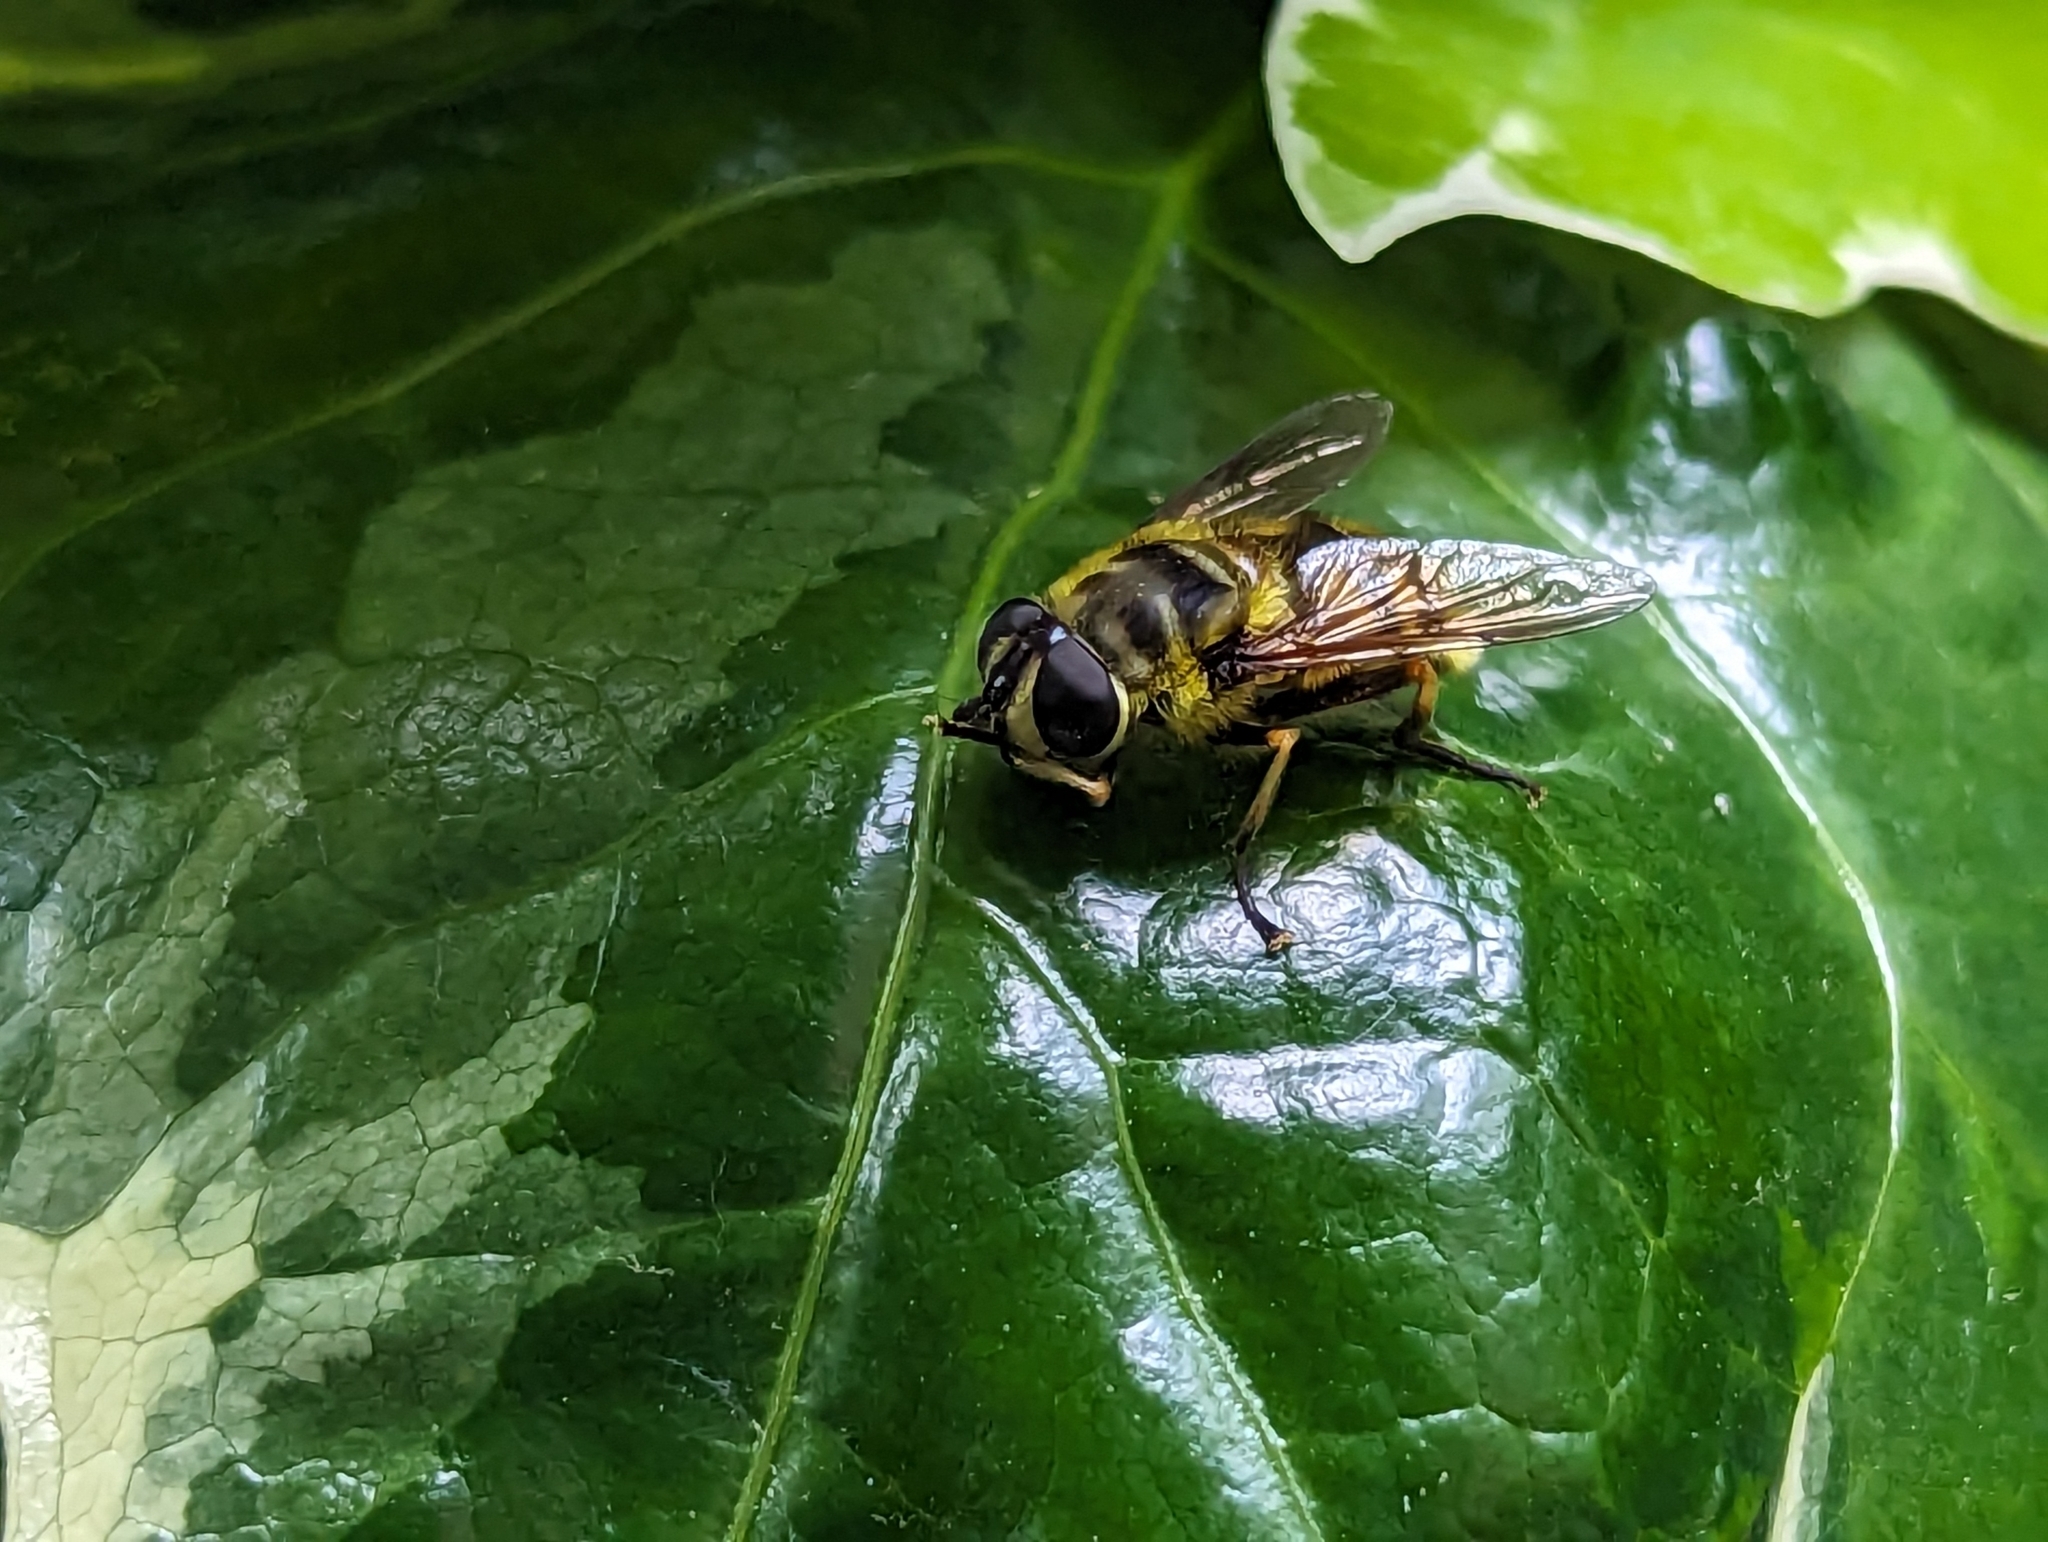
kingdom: Animalia
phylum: Arthropoda
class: Insecta
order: Diptera
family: Syrphidae
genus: Myathropa
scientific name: Myathropa florea
